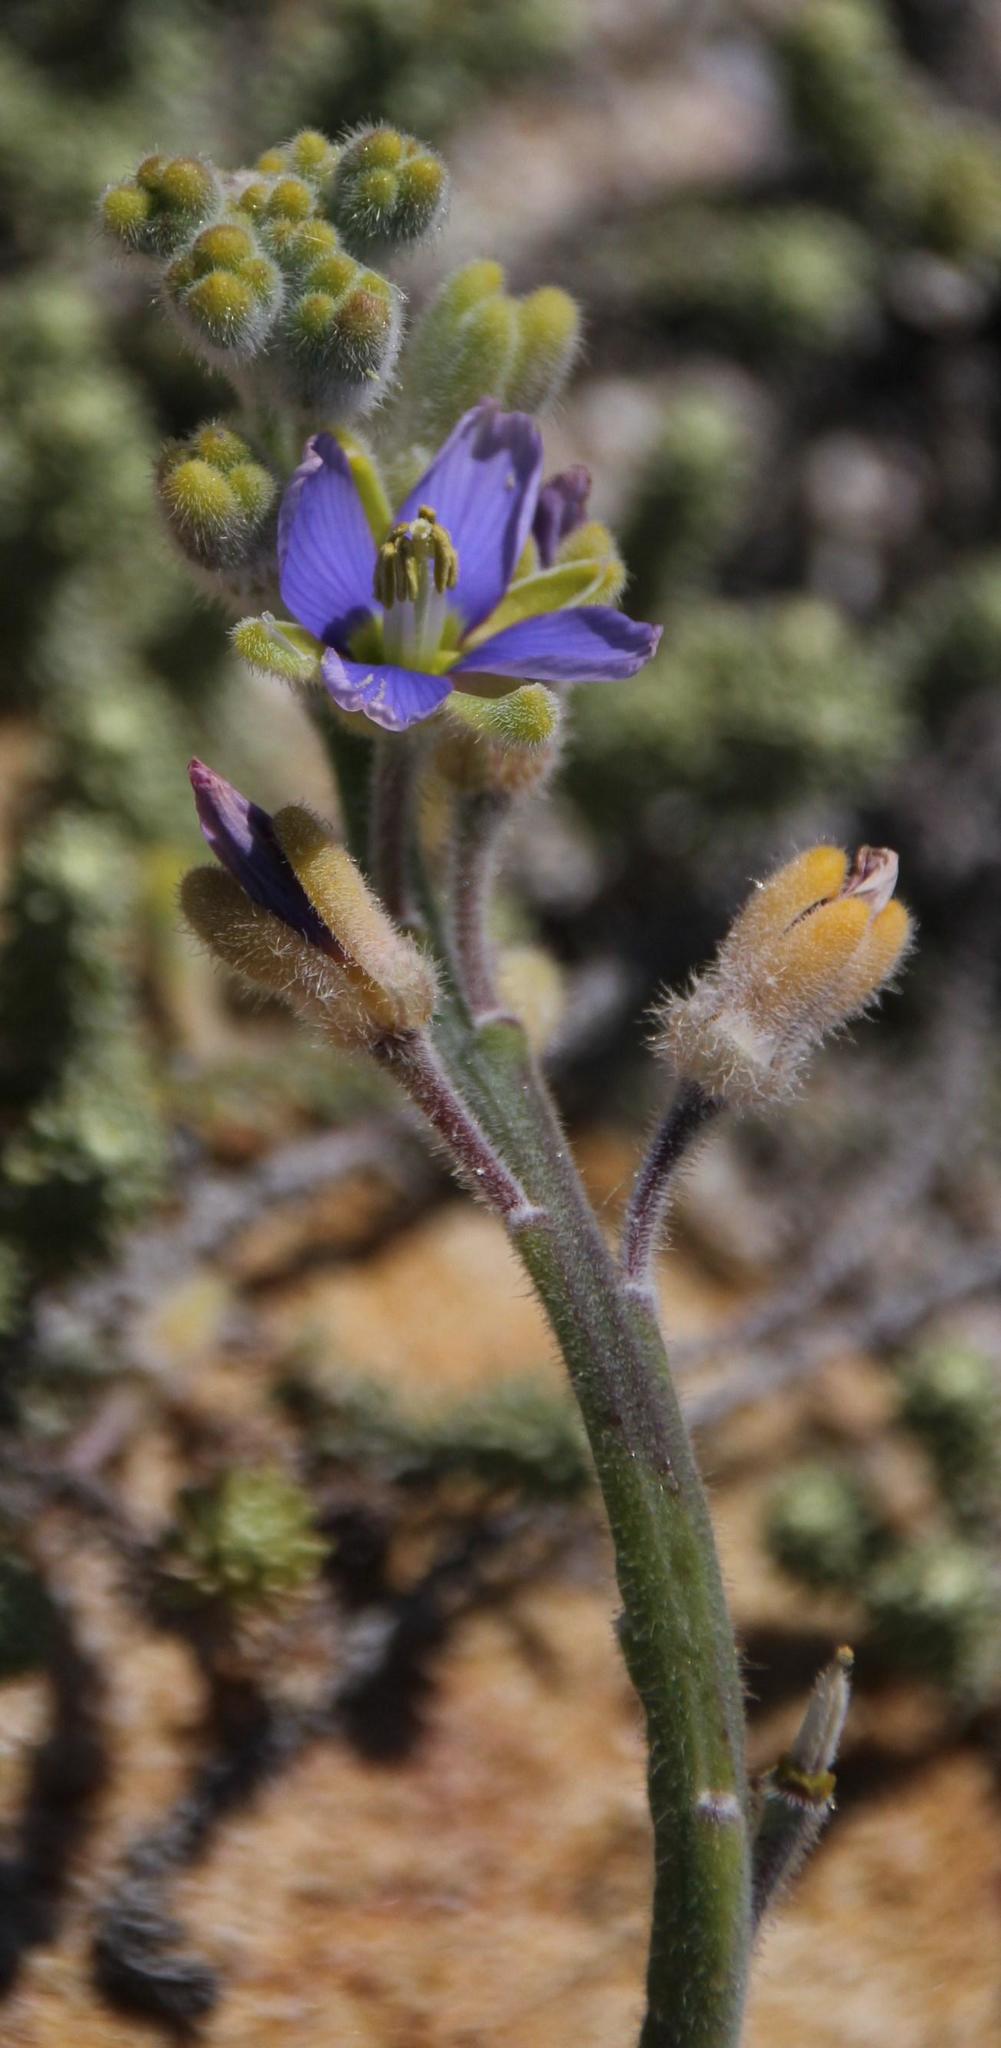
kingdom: Plantae
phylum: Tracheophyta
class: Magnoliopsida
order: Brassicales
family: Brassicaceae
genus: Heliophila
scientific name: Heliophila cinerea
